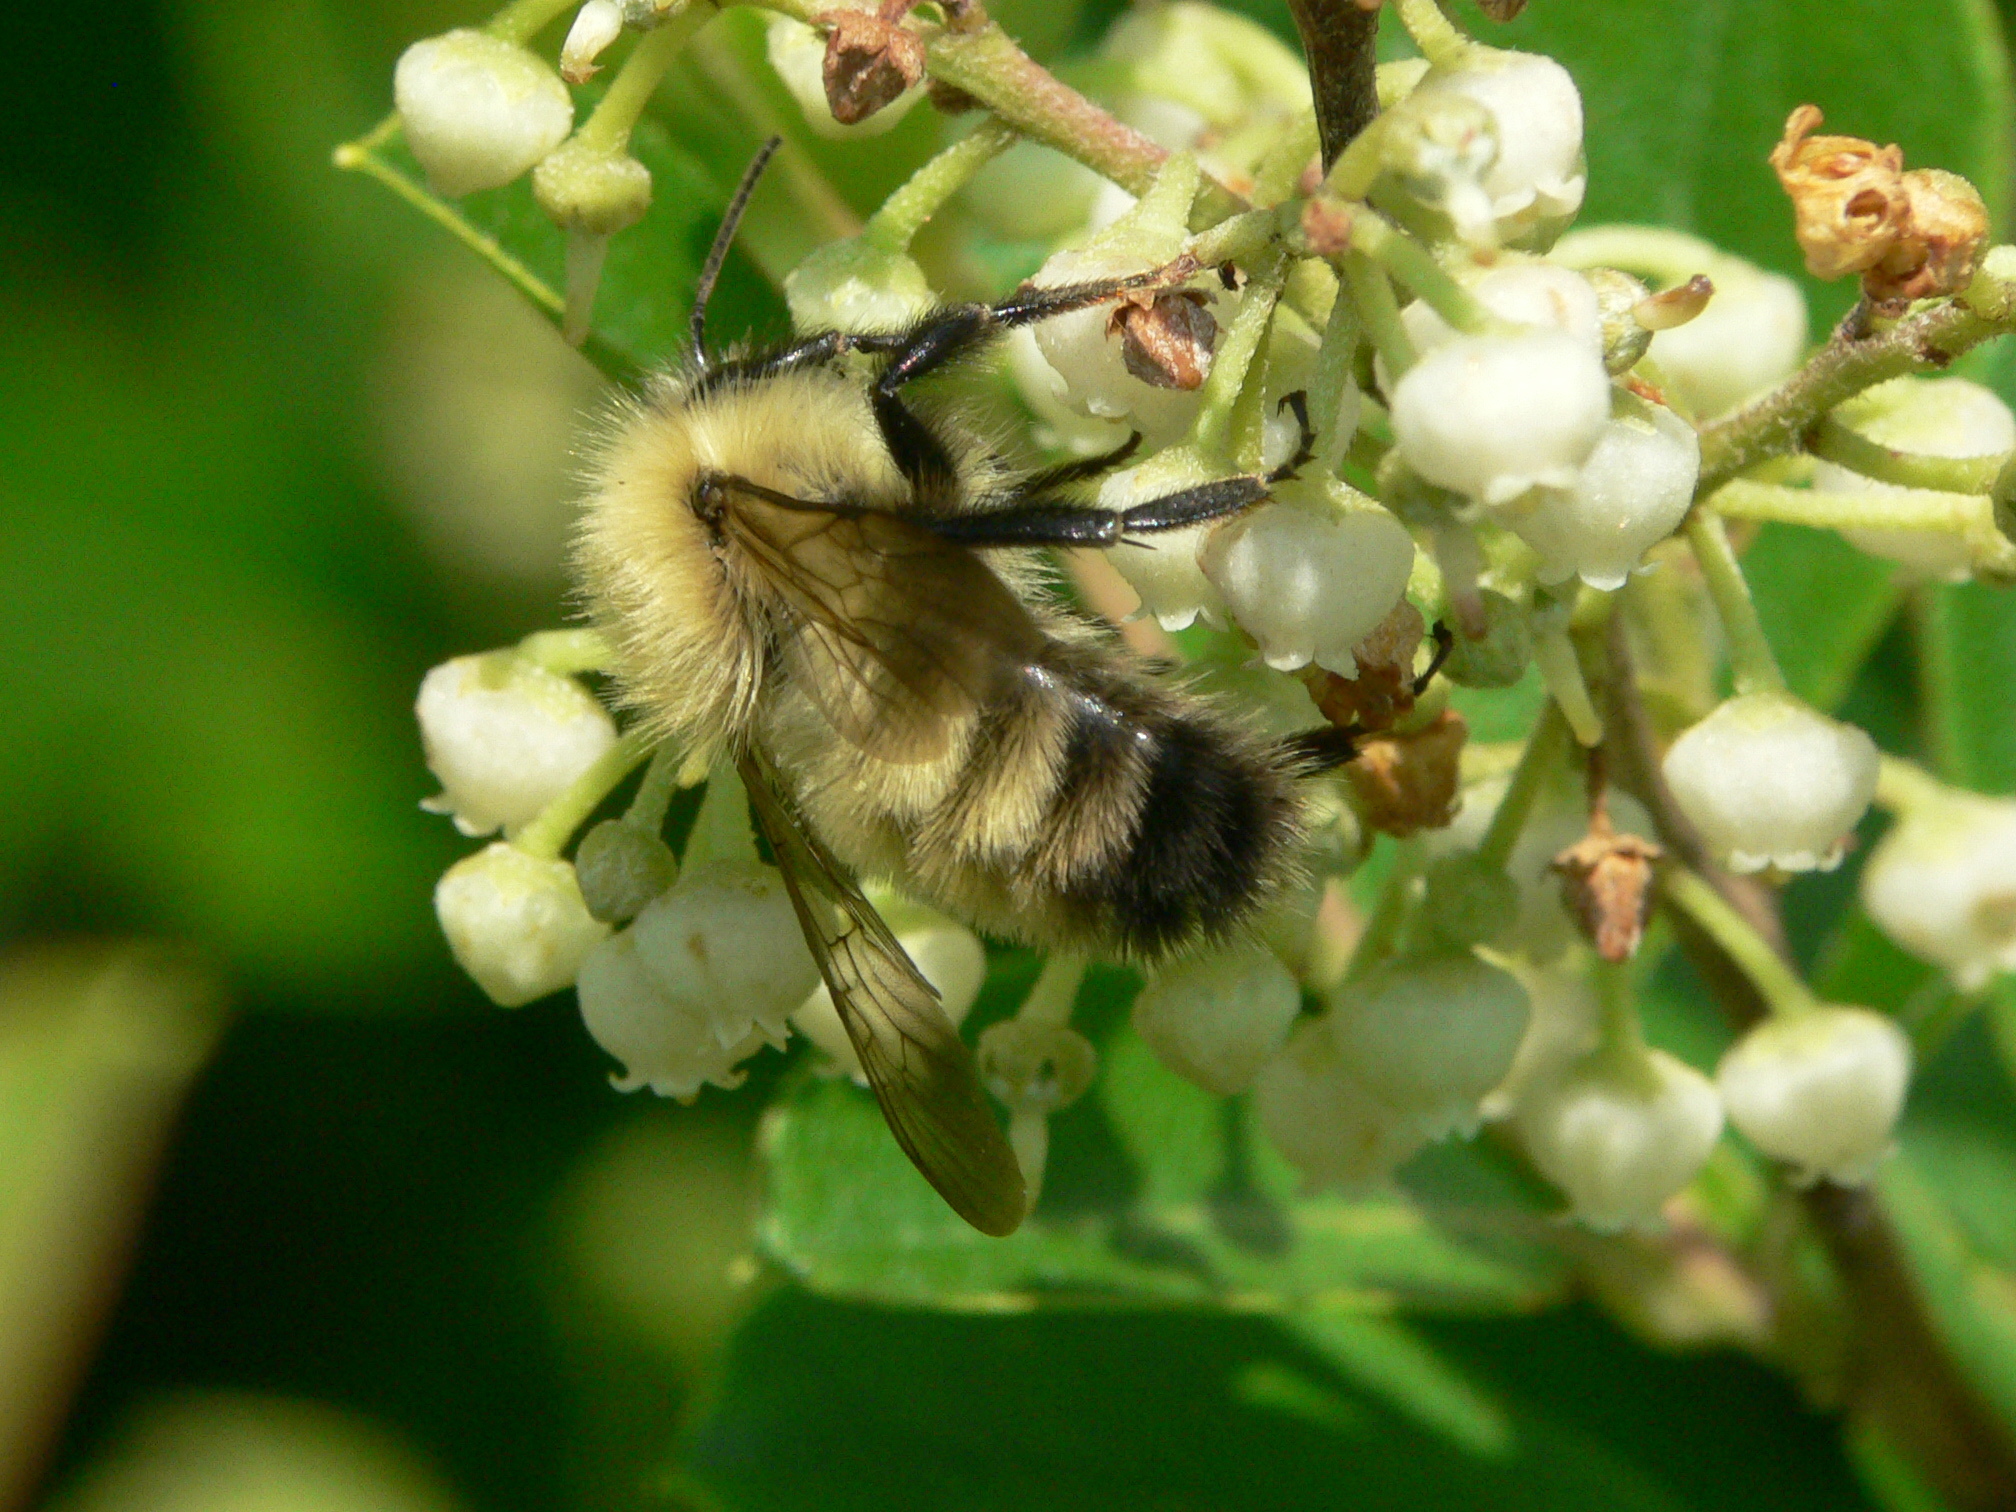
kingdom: Animalia
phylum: Arthropoda
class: Insecta
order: Hymenoptera
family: Apidae
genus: Bombus
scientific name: Bombus perplexus
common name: Confusing bumble bee
